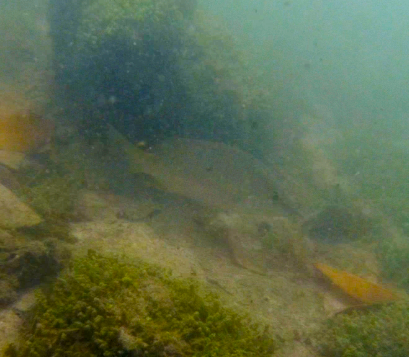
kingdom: Animalia
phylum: Chordata
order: Perciformes
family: Lutjanidae
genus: Lutjanus
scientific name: Lutjanus argentiventris
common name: Yellow snapper
